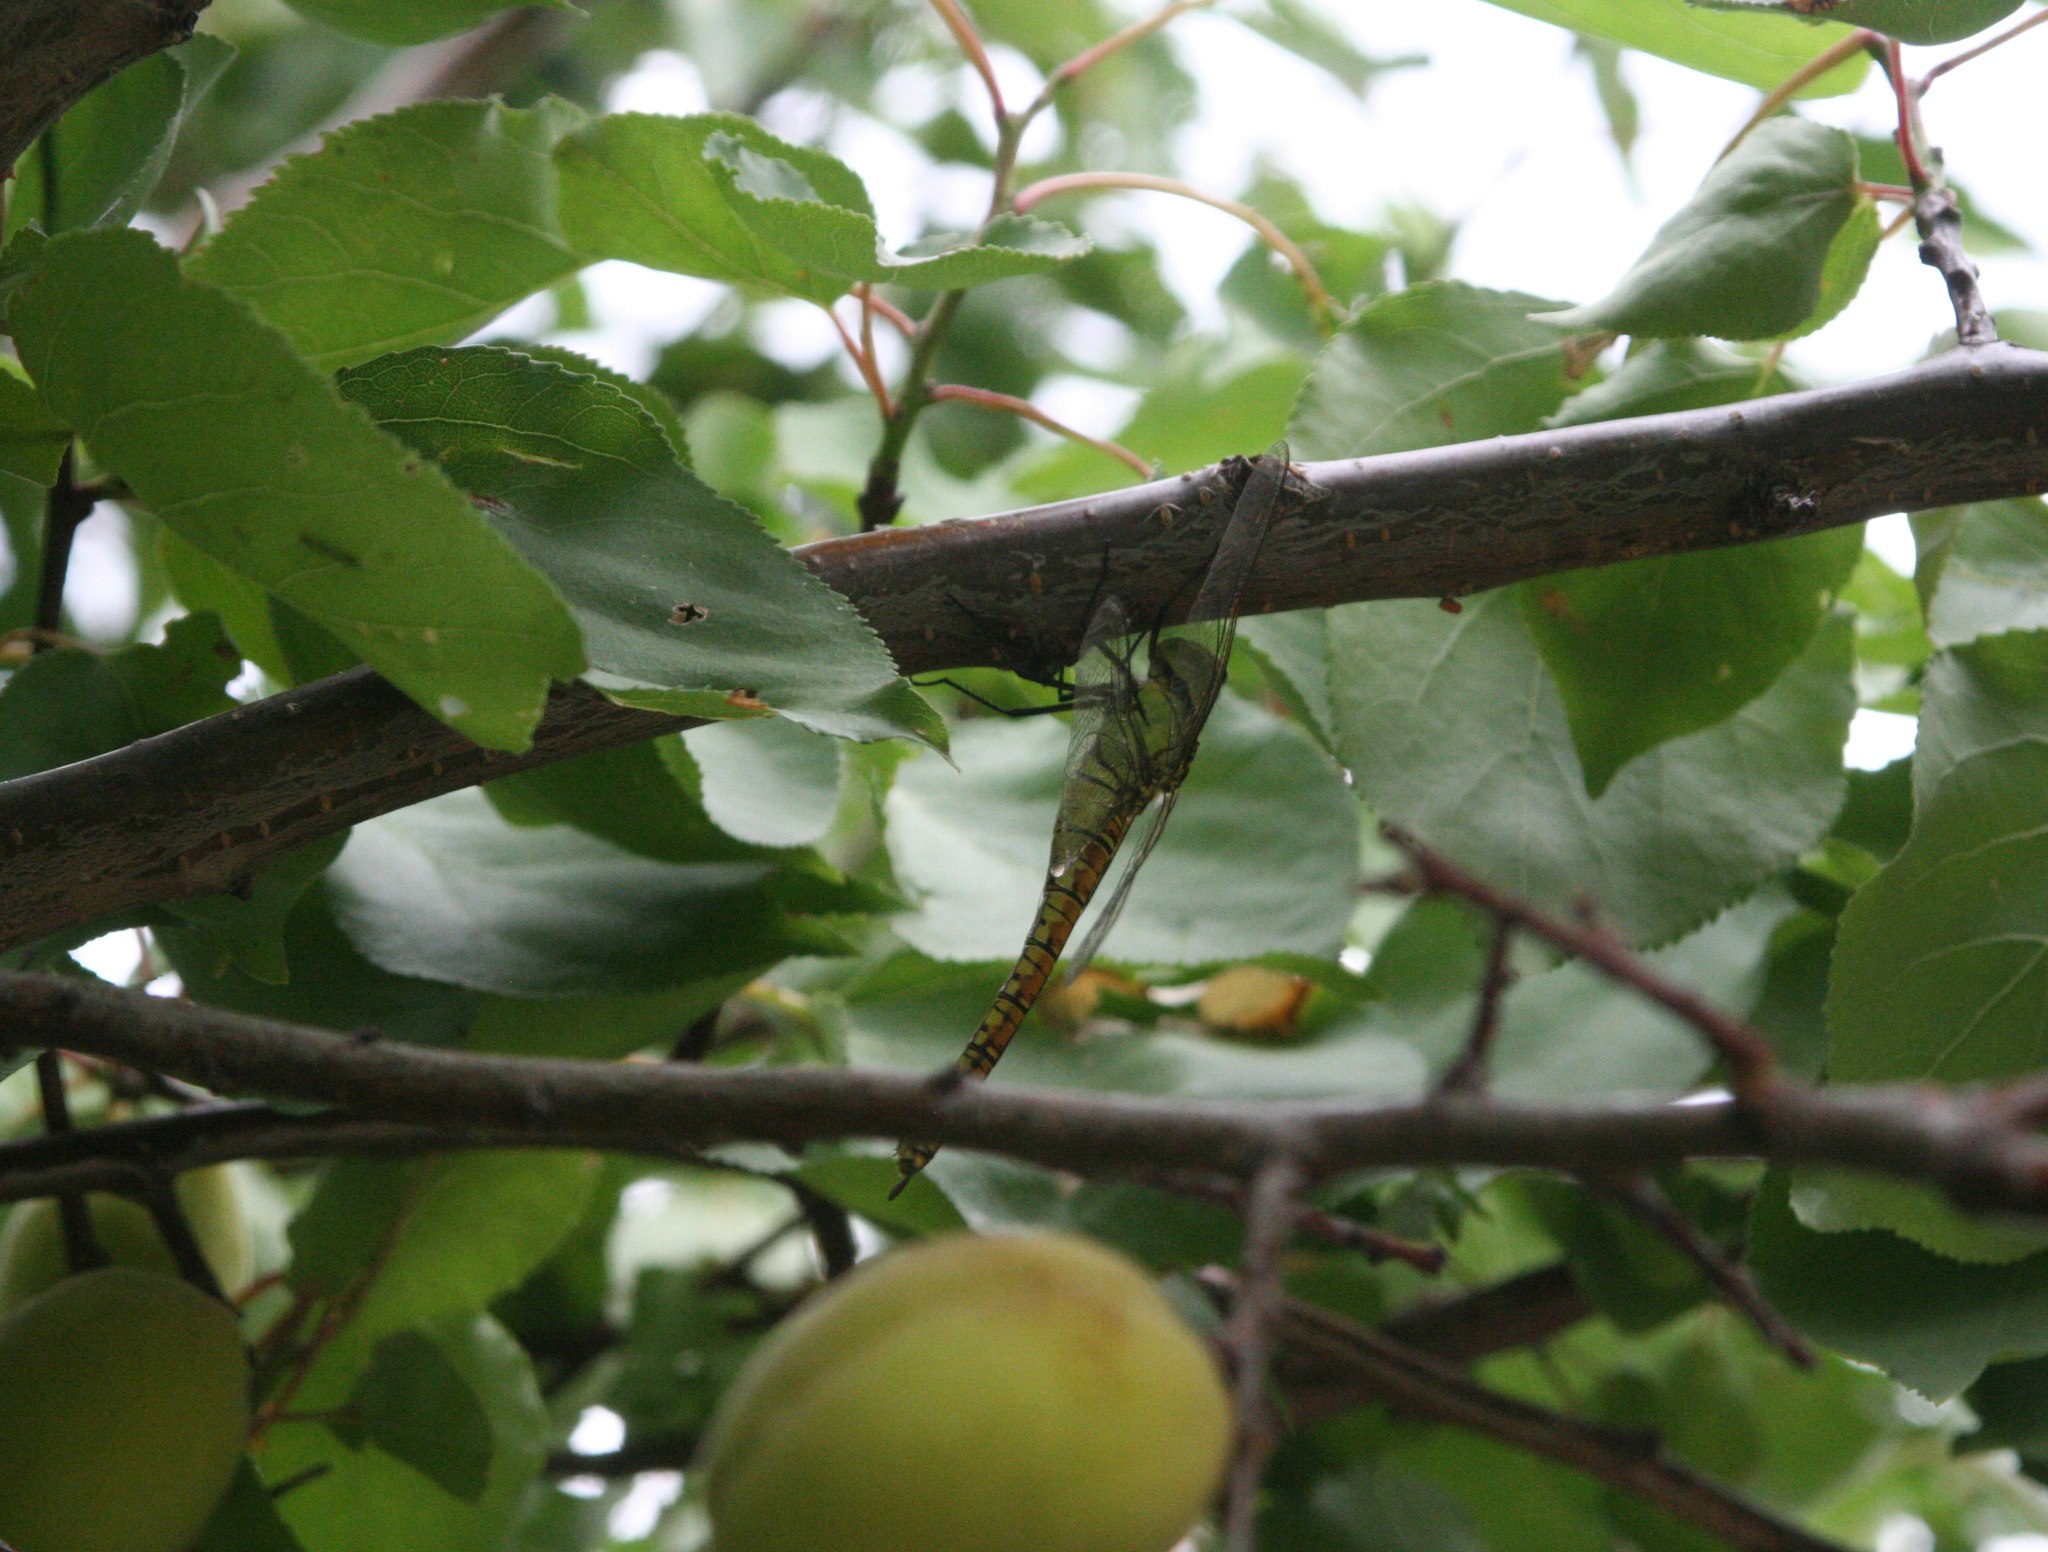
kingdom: Animalia
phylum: Arthropoda
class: Insecta
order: Odonata
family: Aeshnidae
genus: Aeshna
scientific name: Aeshna affinis
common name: Southern migrant hawker
